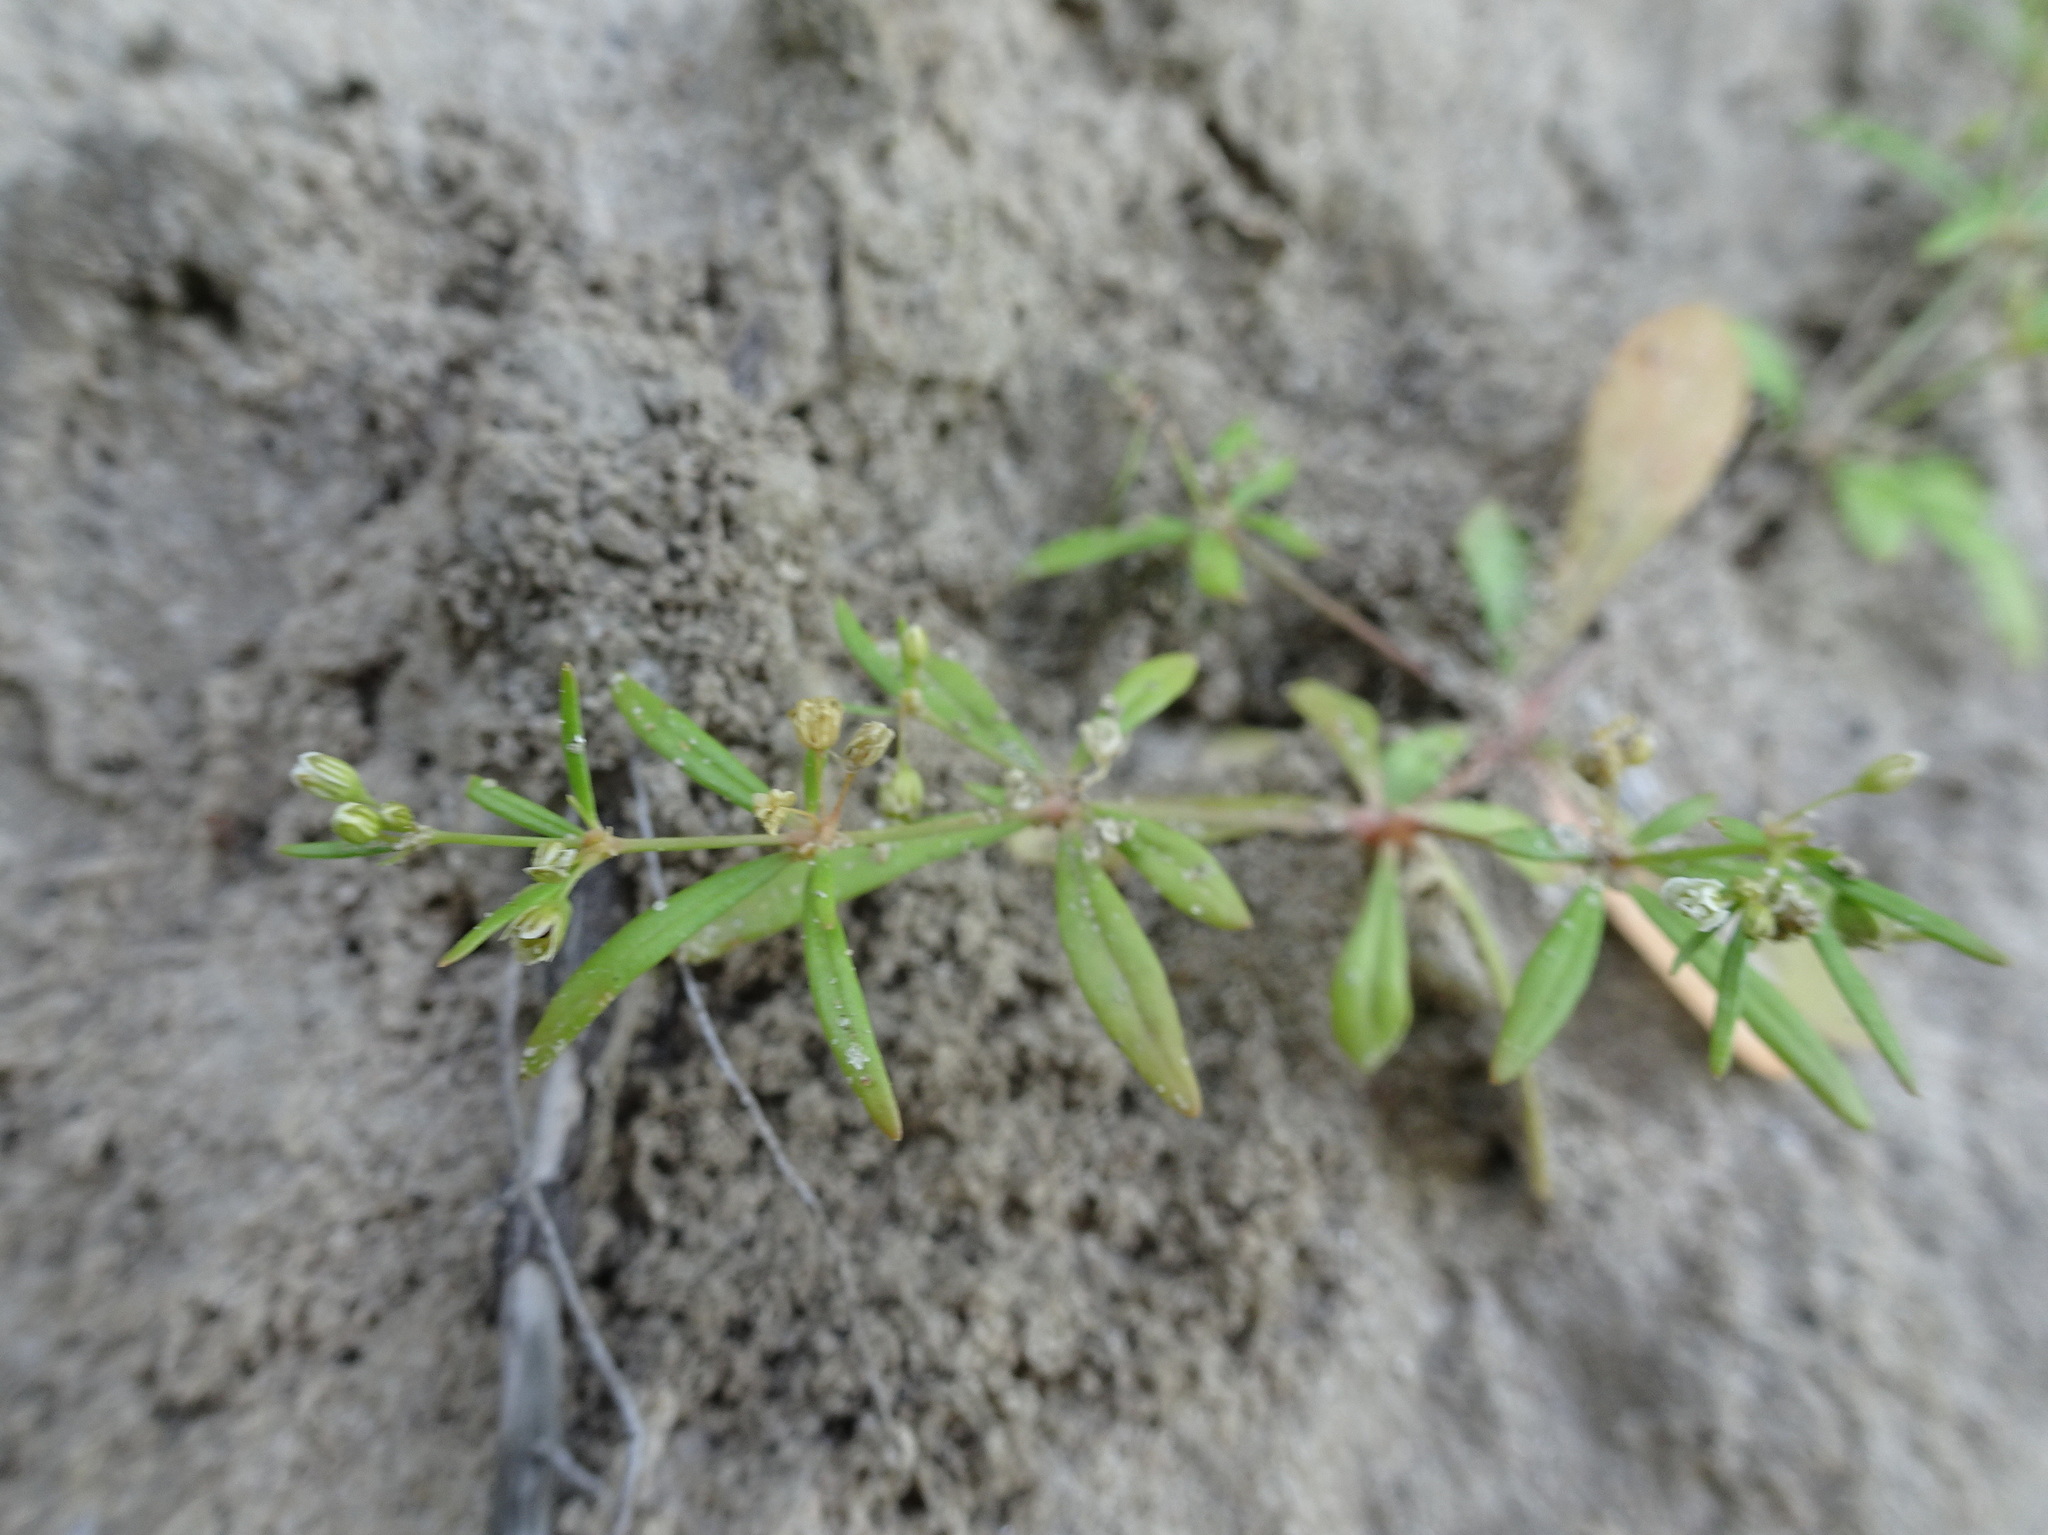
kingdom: Plantae
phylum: Tracheophyta
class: Magnoliopsida
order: Caryophyllales
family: Molluginaceae
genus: Mollugo
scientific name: Mollugo verticillata
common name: Green carpetweed
